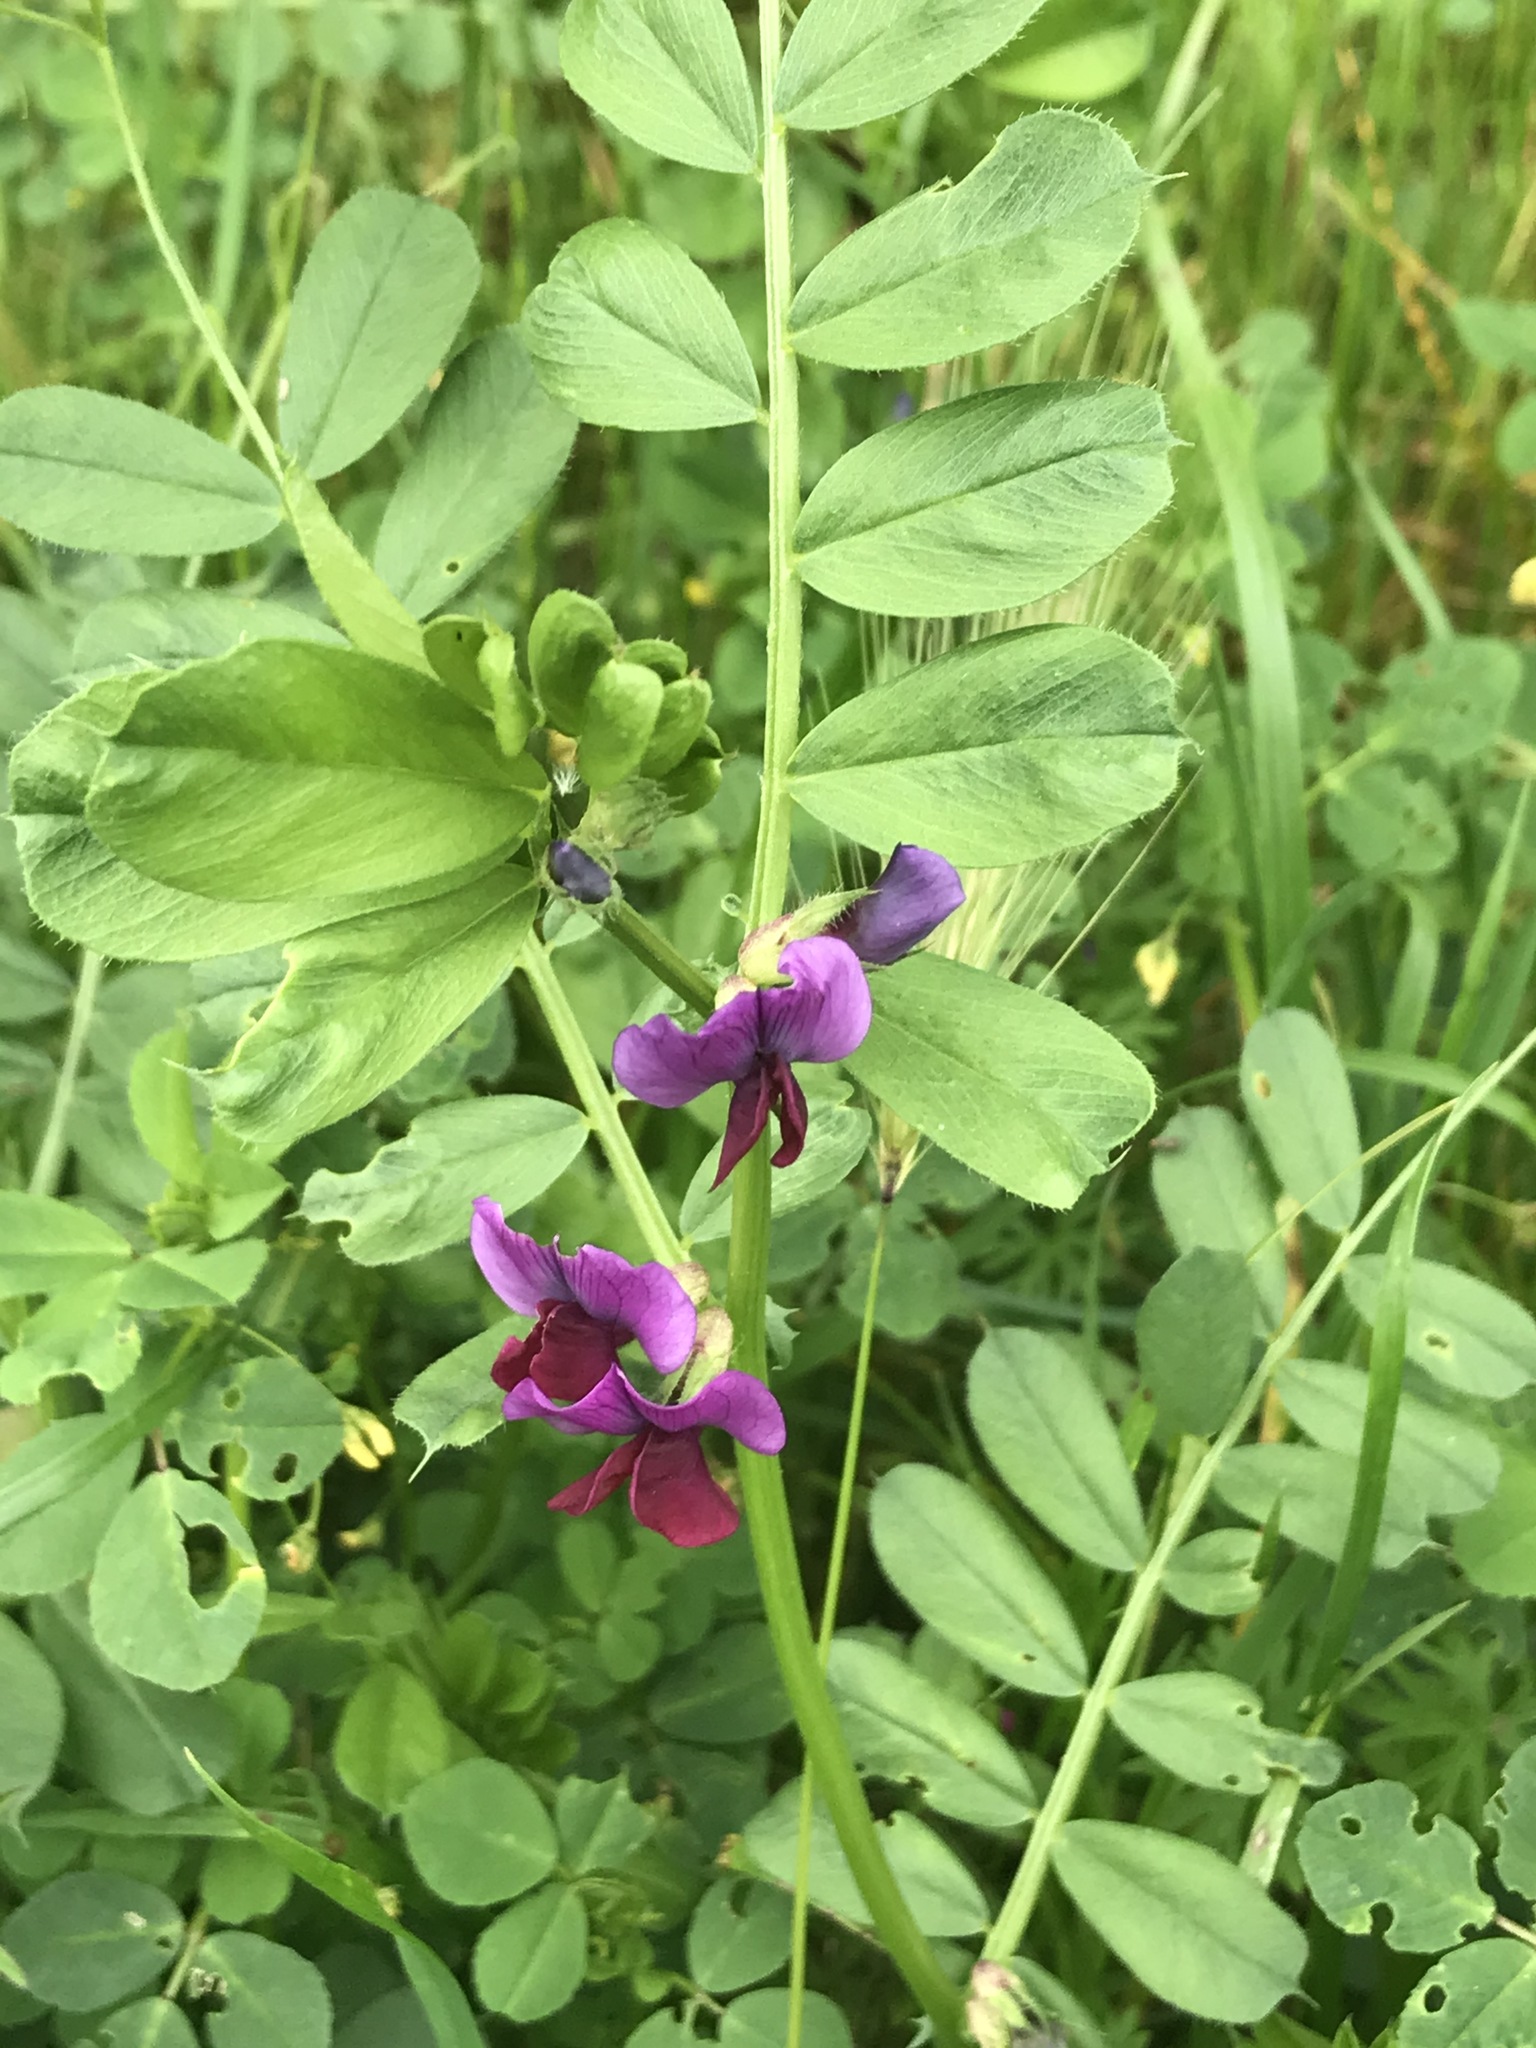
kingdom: Plantae
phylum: Tracheophyta
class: Magnoliopsida
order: Fabales
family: Fabaceae
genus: Vicia
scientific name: Vicia sativa
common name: Garden vetch
